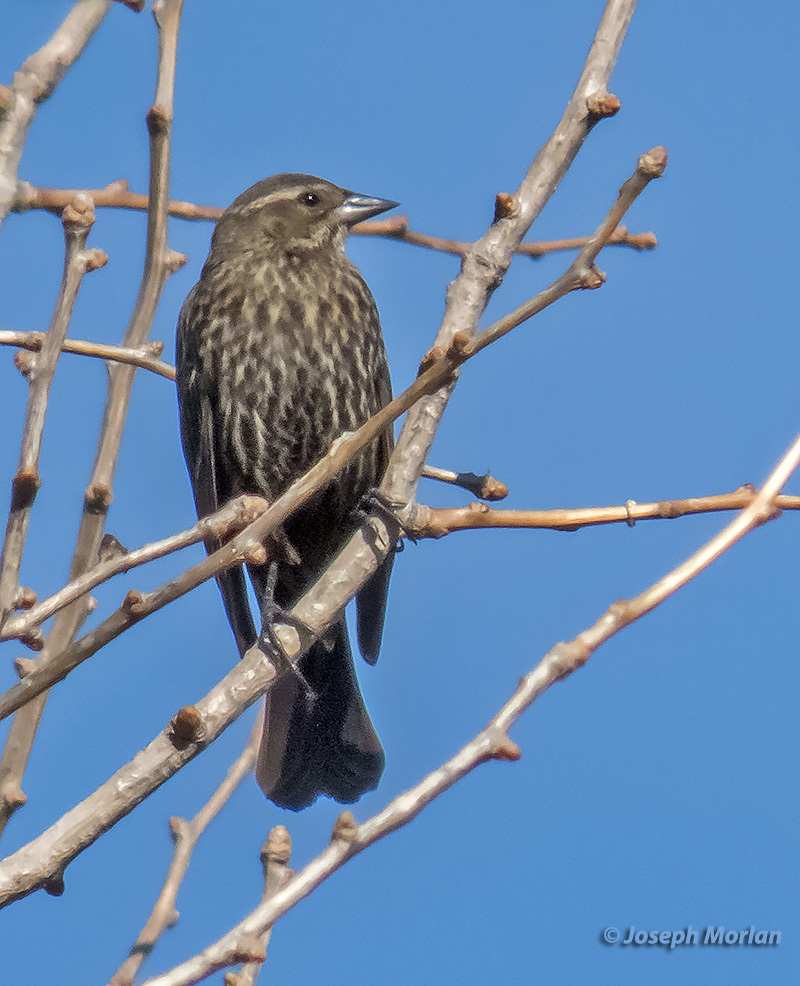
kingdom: Animalia
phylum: Chordata
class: Aves
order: Passeriformes
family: Icteridae
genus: Agelaius
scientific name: Agelaius phoeniceus
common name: Red-winged blackbird
